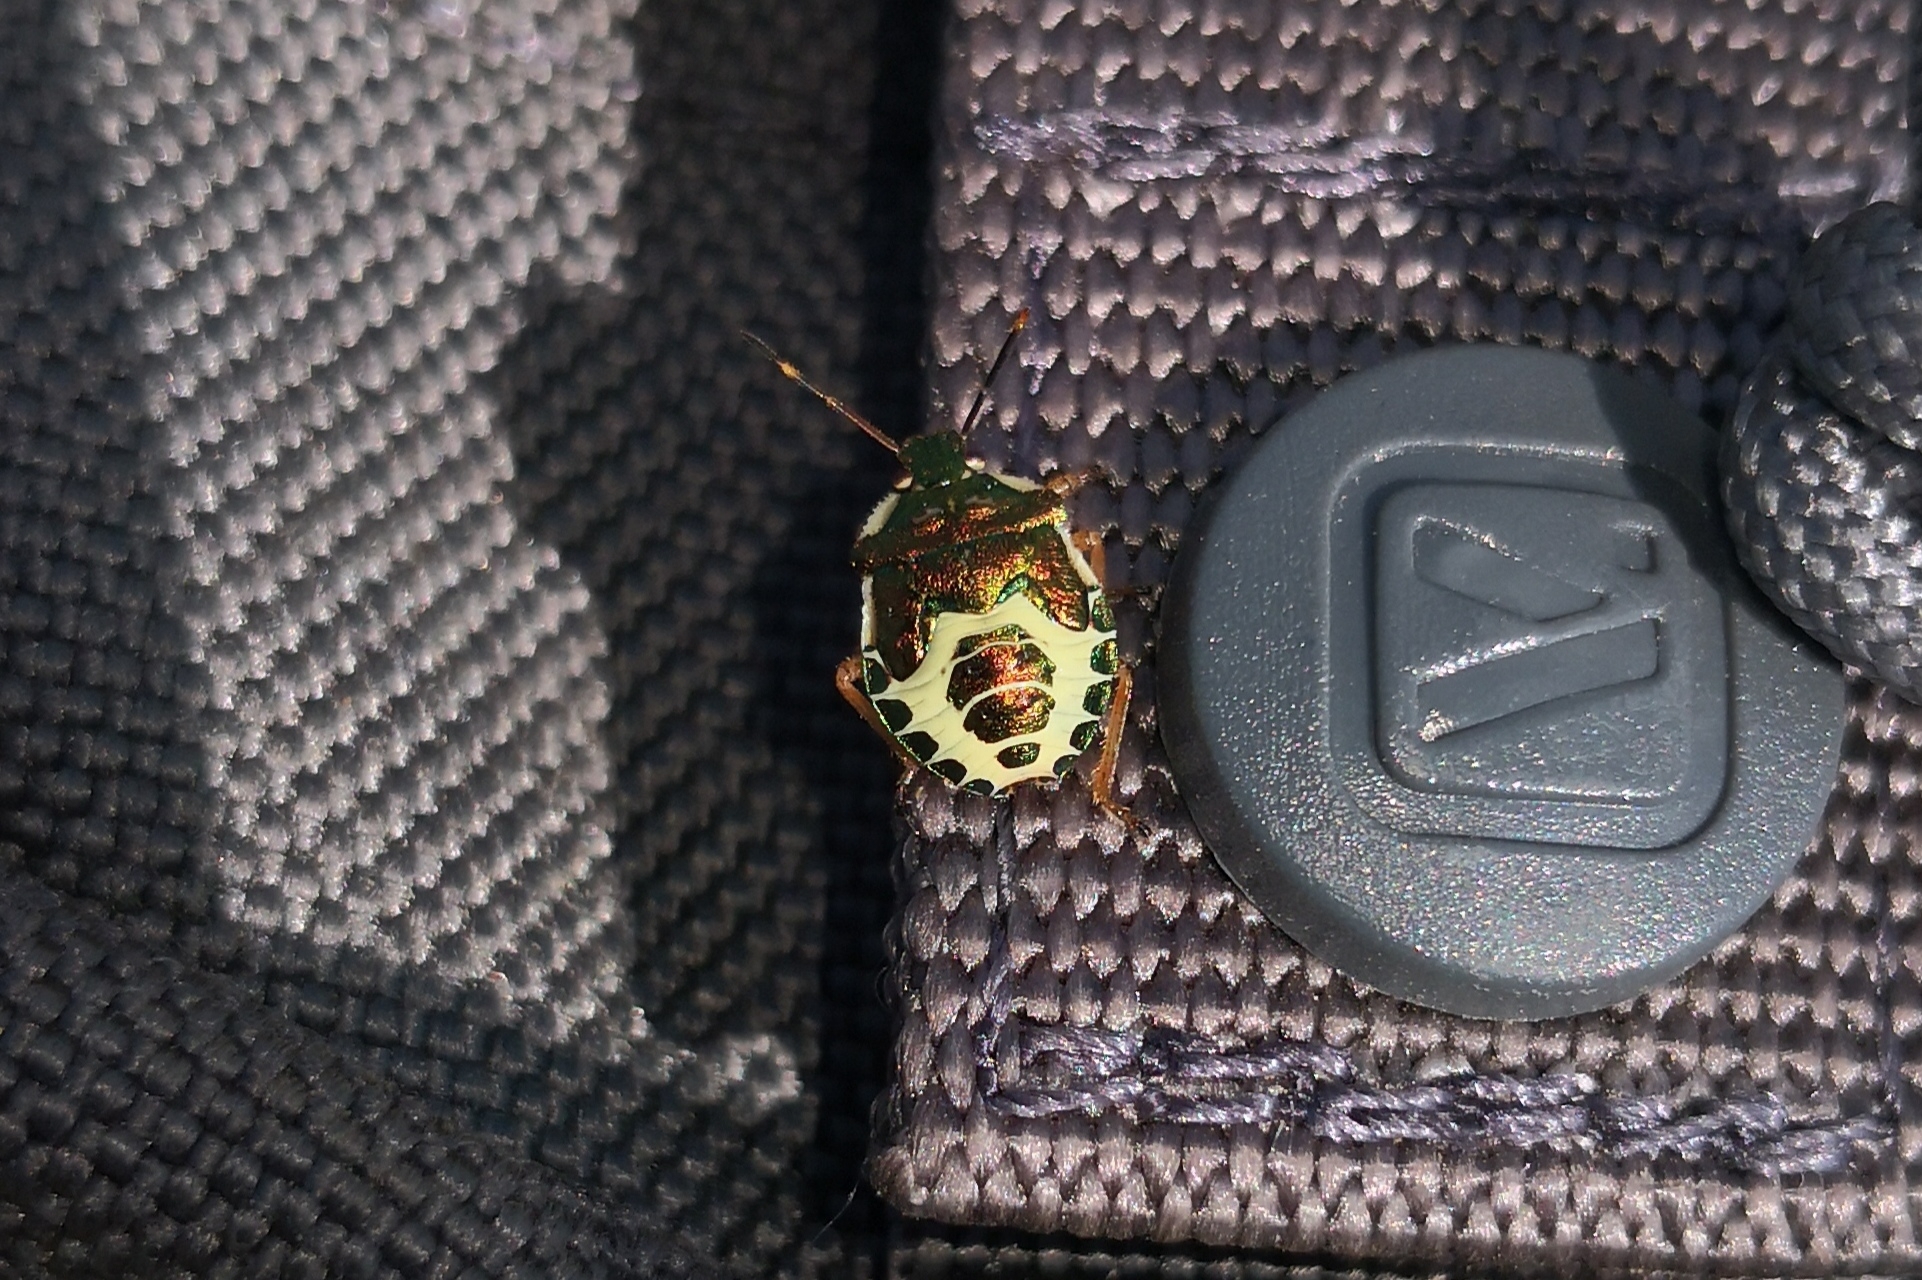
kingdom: Animalia
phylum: Arthropoda
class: Insecta
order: Hemiptera
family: Pentatomidae
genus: Troilus
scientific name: Troilus luridus
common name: Bronze shieldbug
